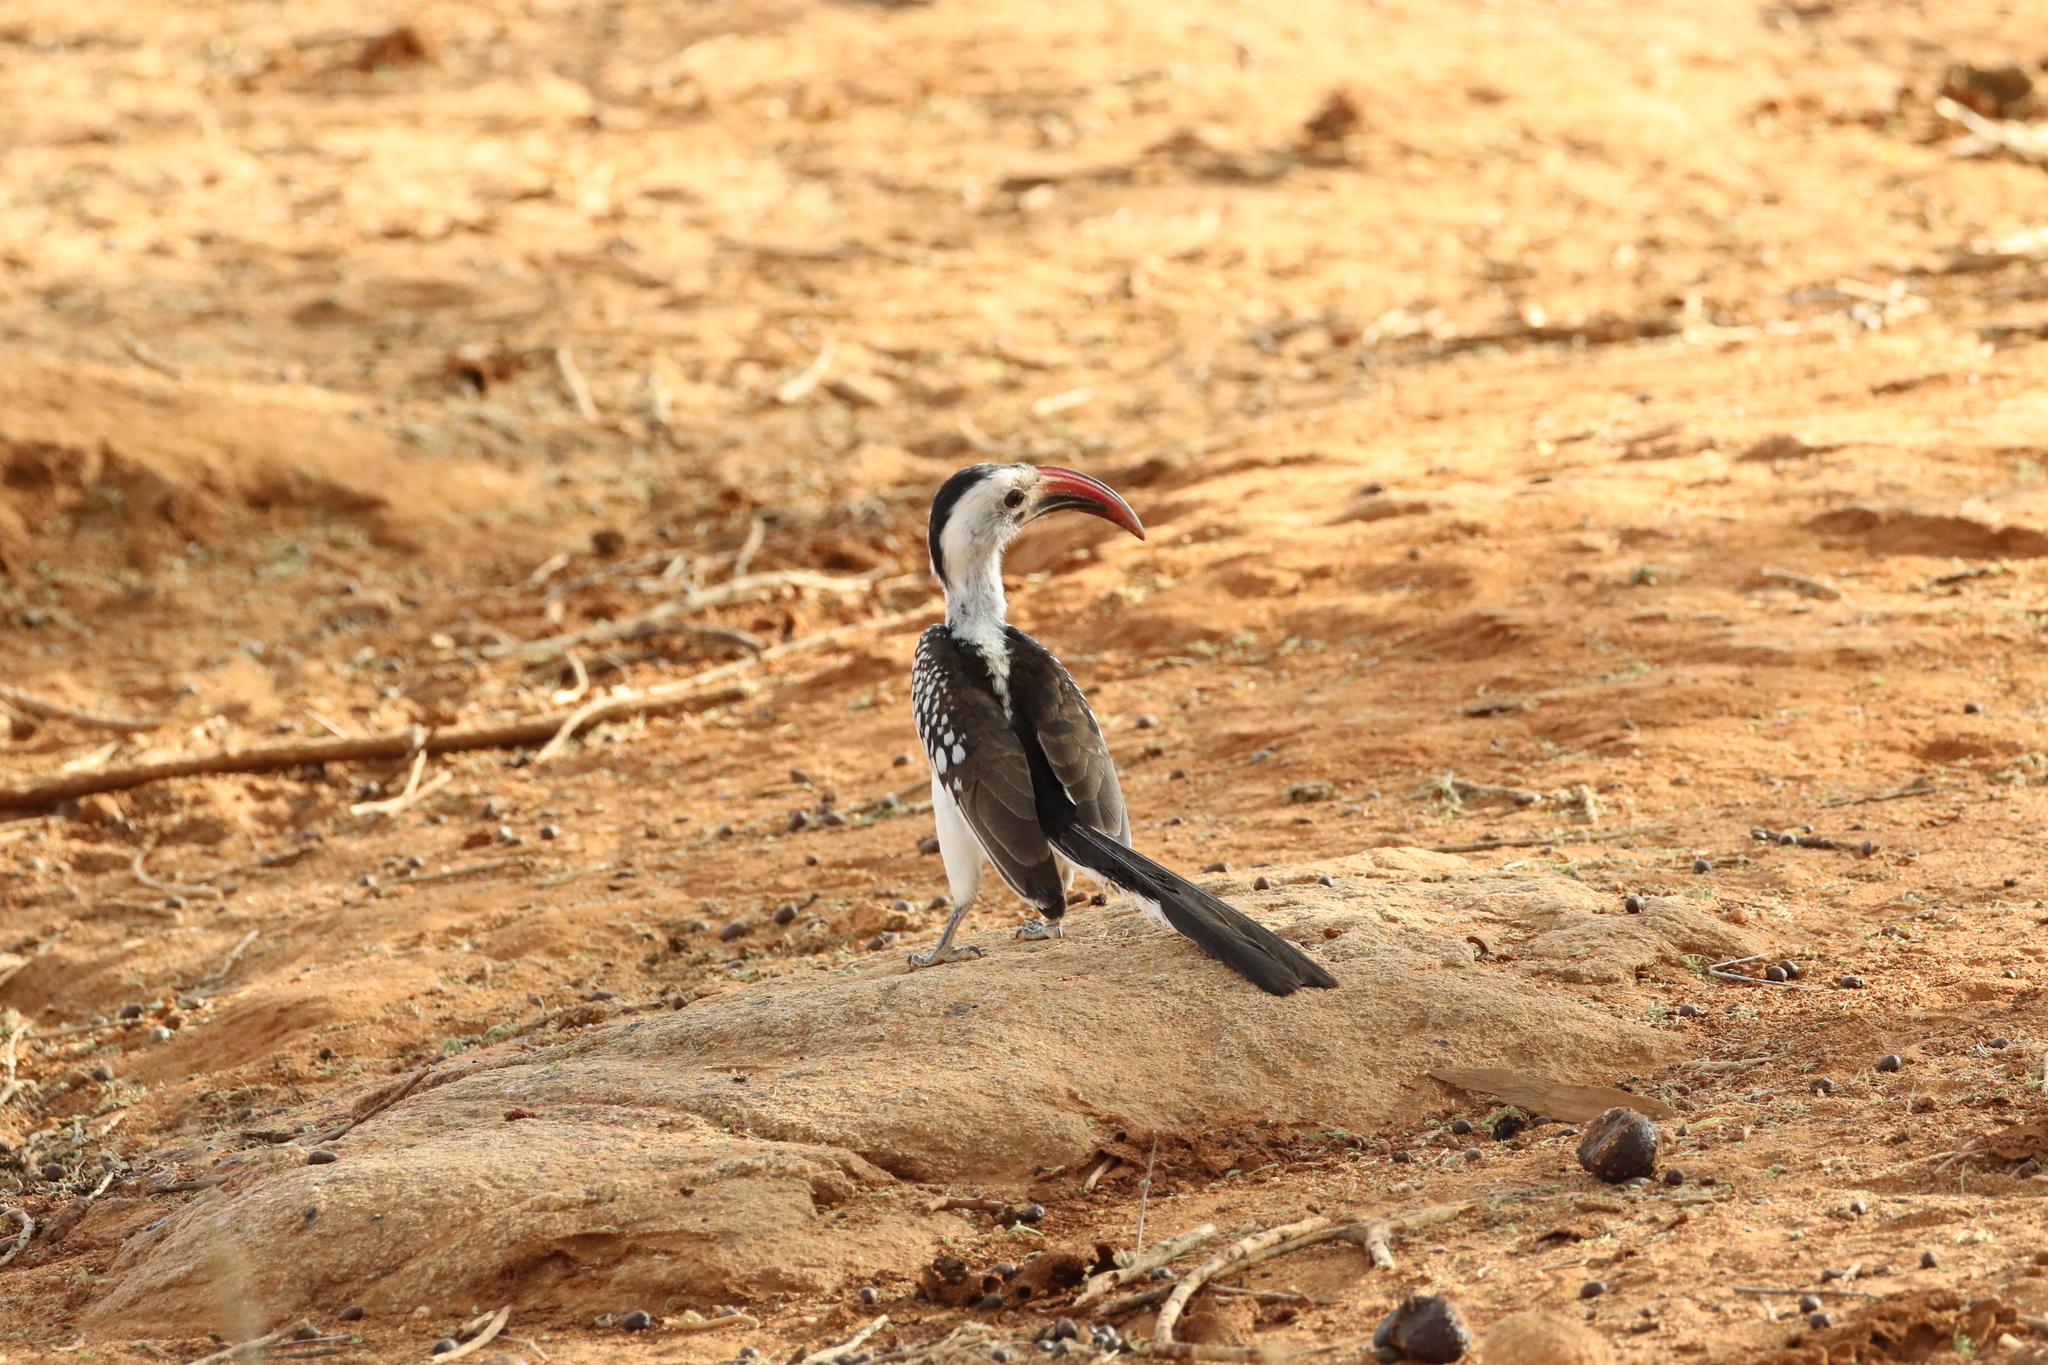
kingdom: Animalia
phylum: Chordata
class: Aves
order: Bucerotiformes
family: Bucerotidae
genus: Tockus
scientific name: Tockus erythrorhynchus
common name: Northern red-billed hornbill
